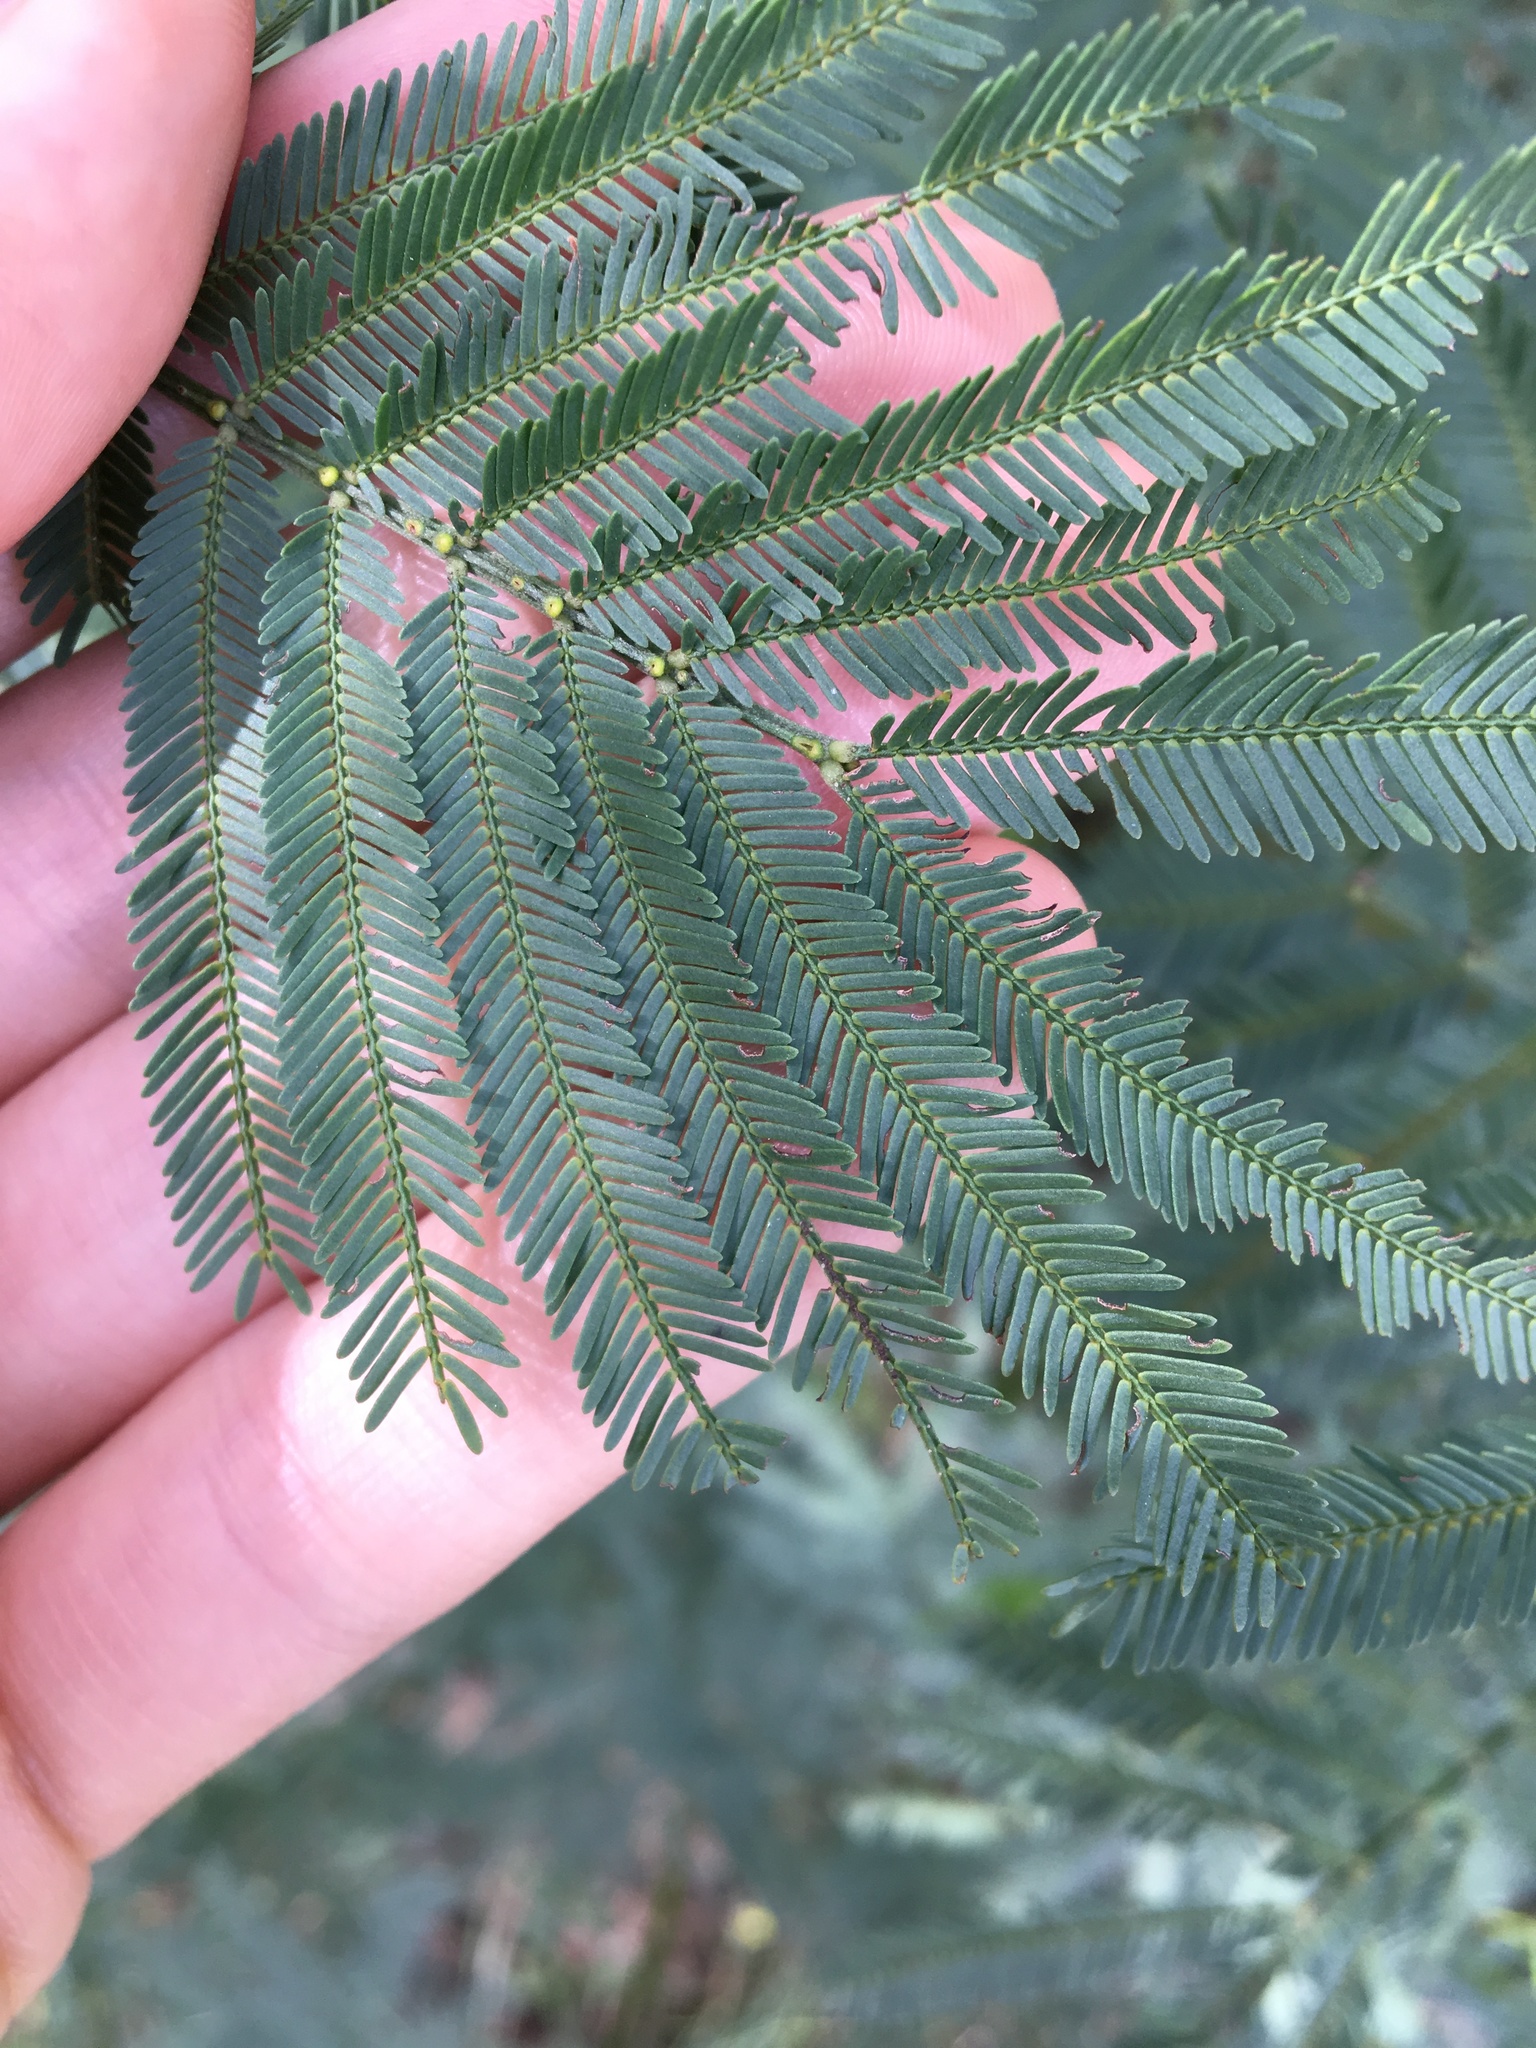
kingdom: Plantae
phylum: Tracheophyta
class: Magnoliopsida
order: Fabales
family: Fabaceae
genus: Acacia
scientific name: Acacia parramattensis
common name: Sydney green wattle
